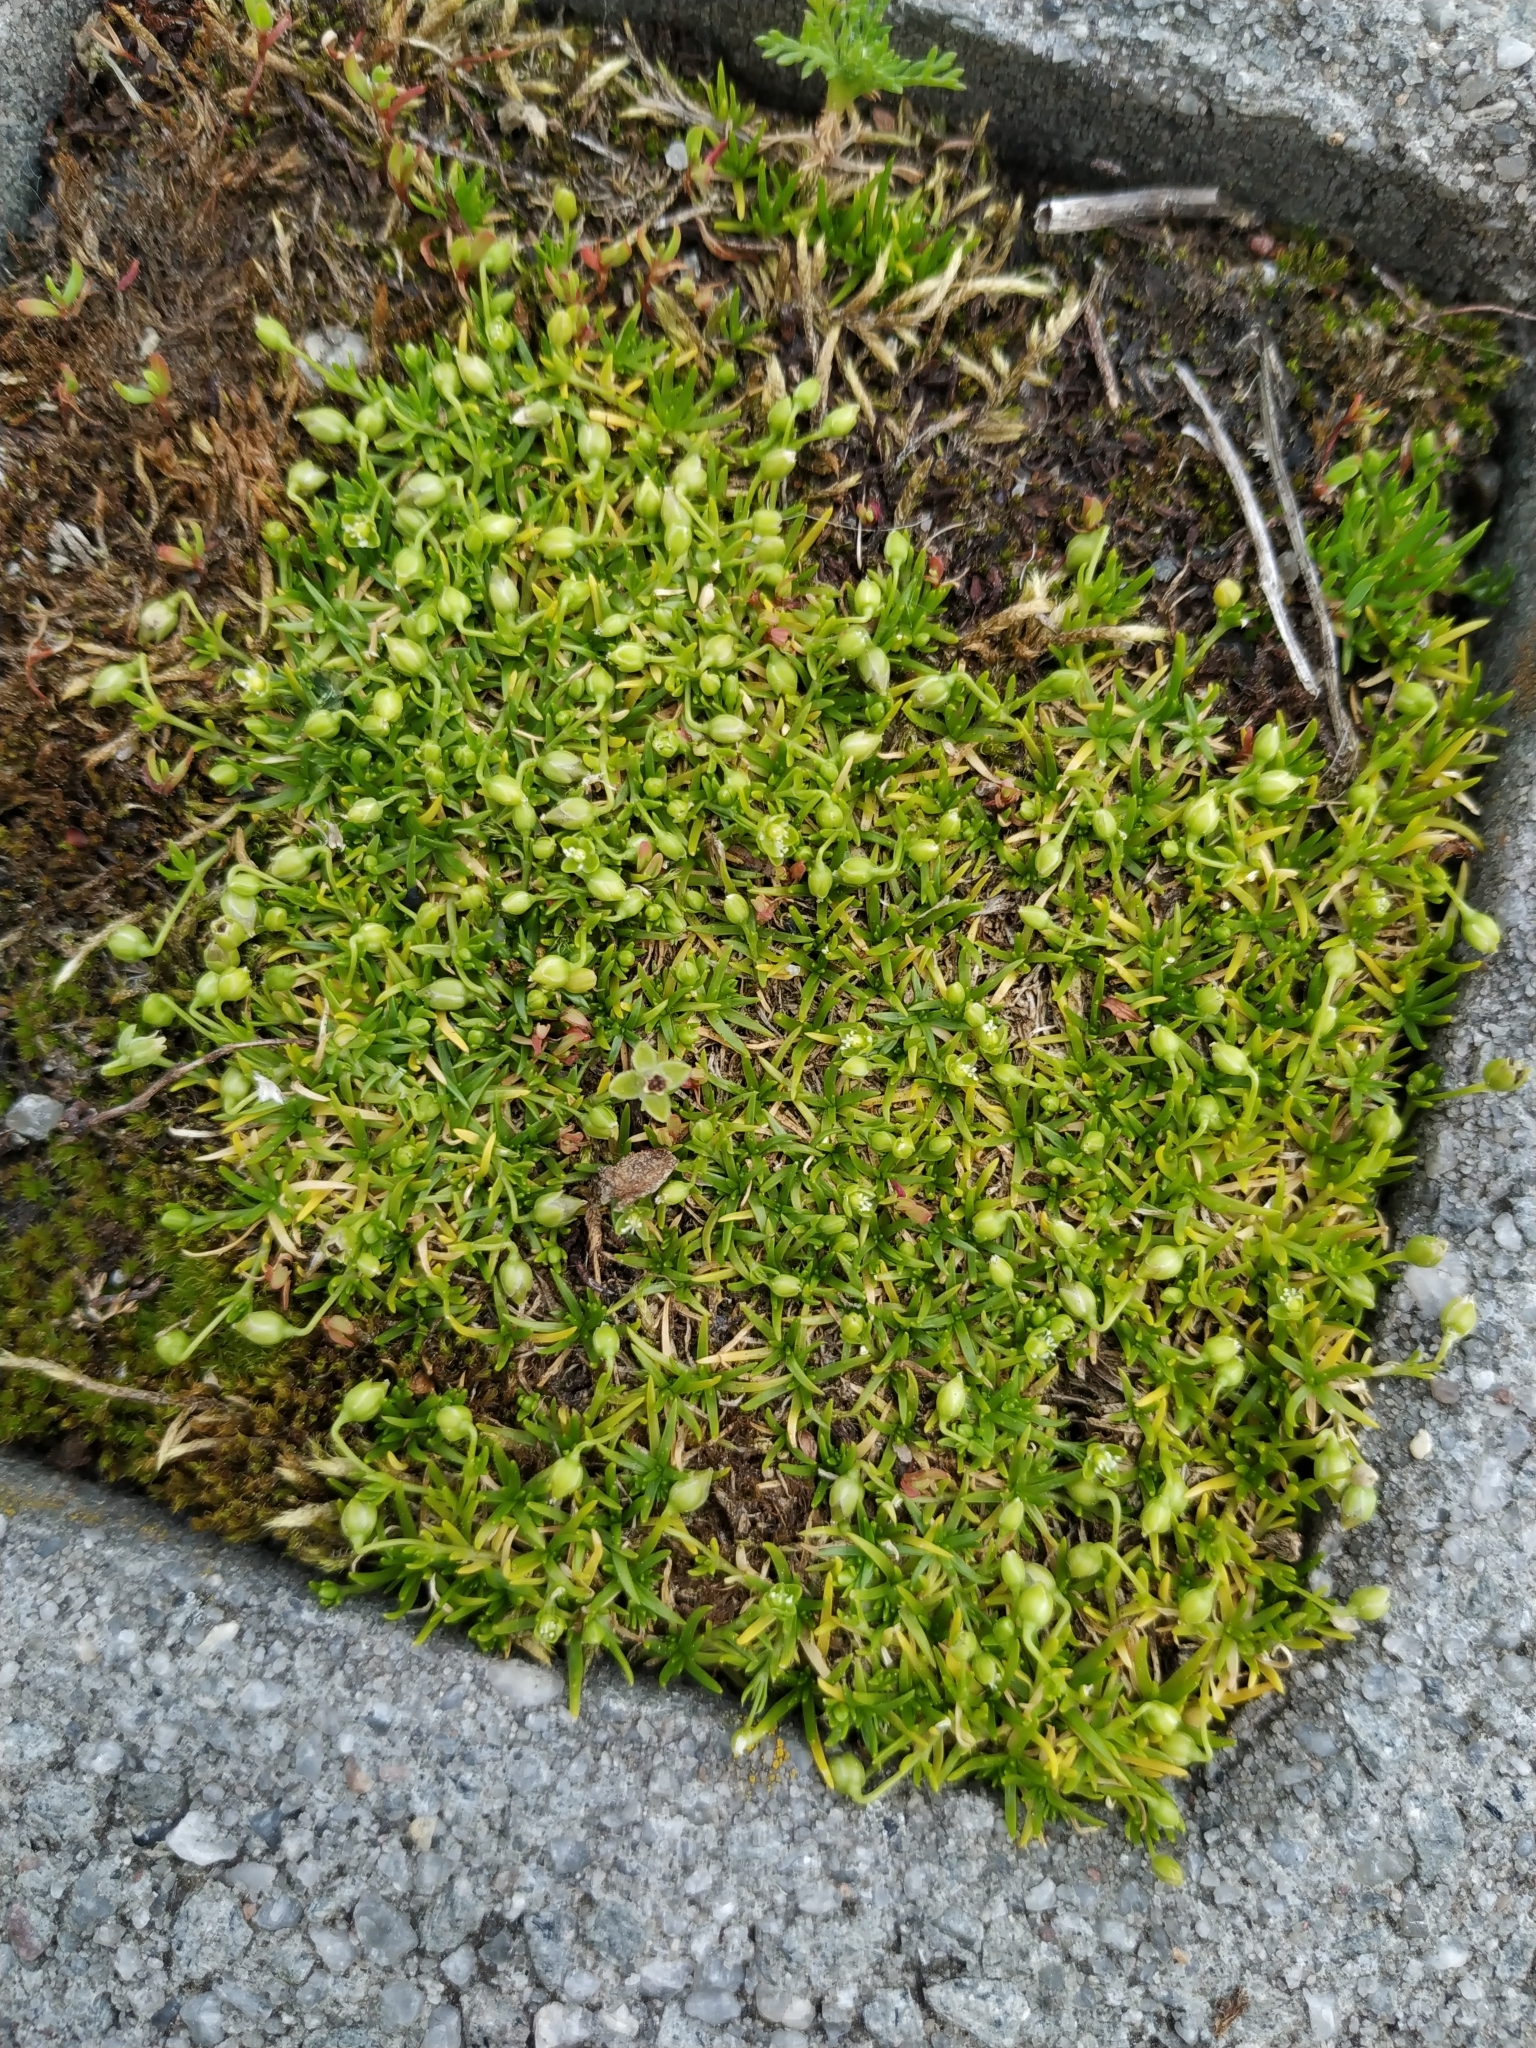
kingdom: Plantae
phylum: Tracheophyta
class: Magnoliopsida
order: Caryophyllales
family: Caryophyllaceae
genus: Sagina
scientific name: Sagina procumbens
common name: Procumbent pearlwort
